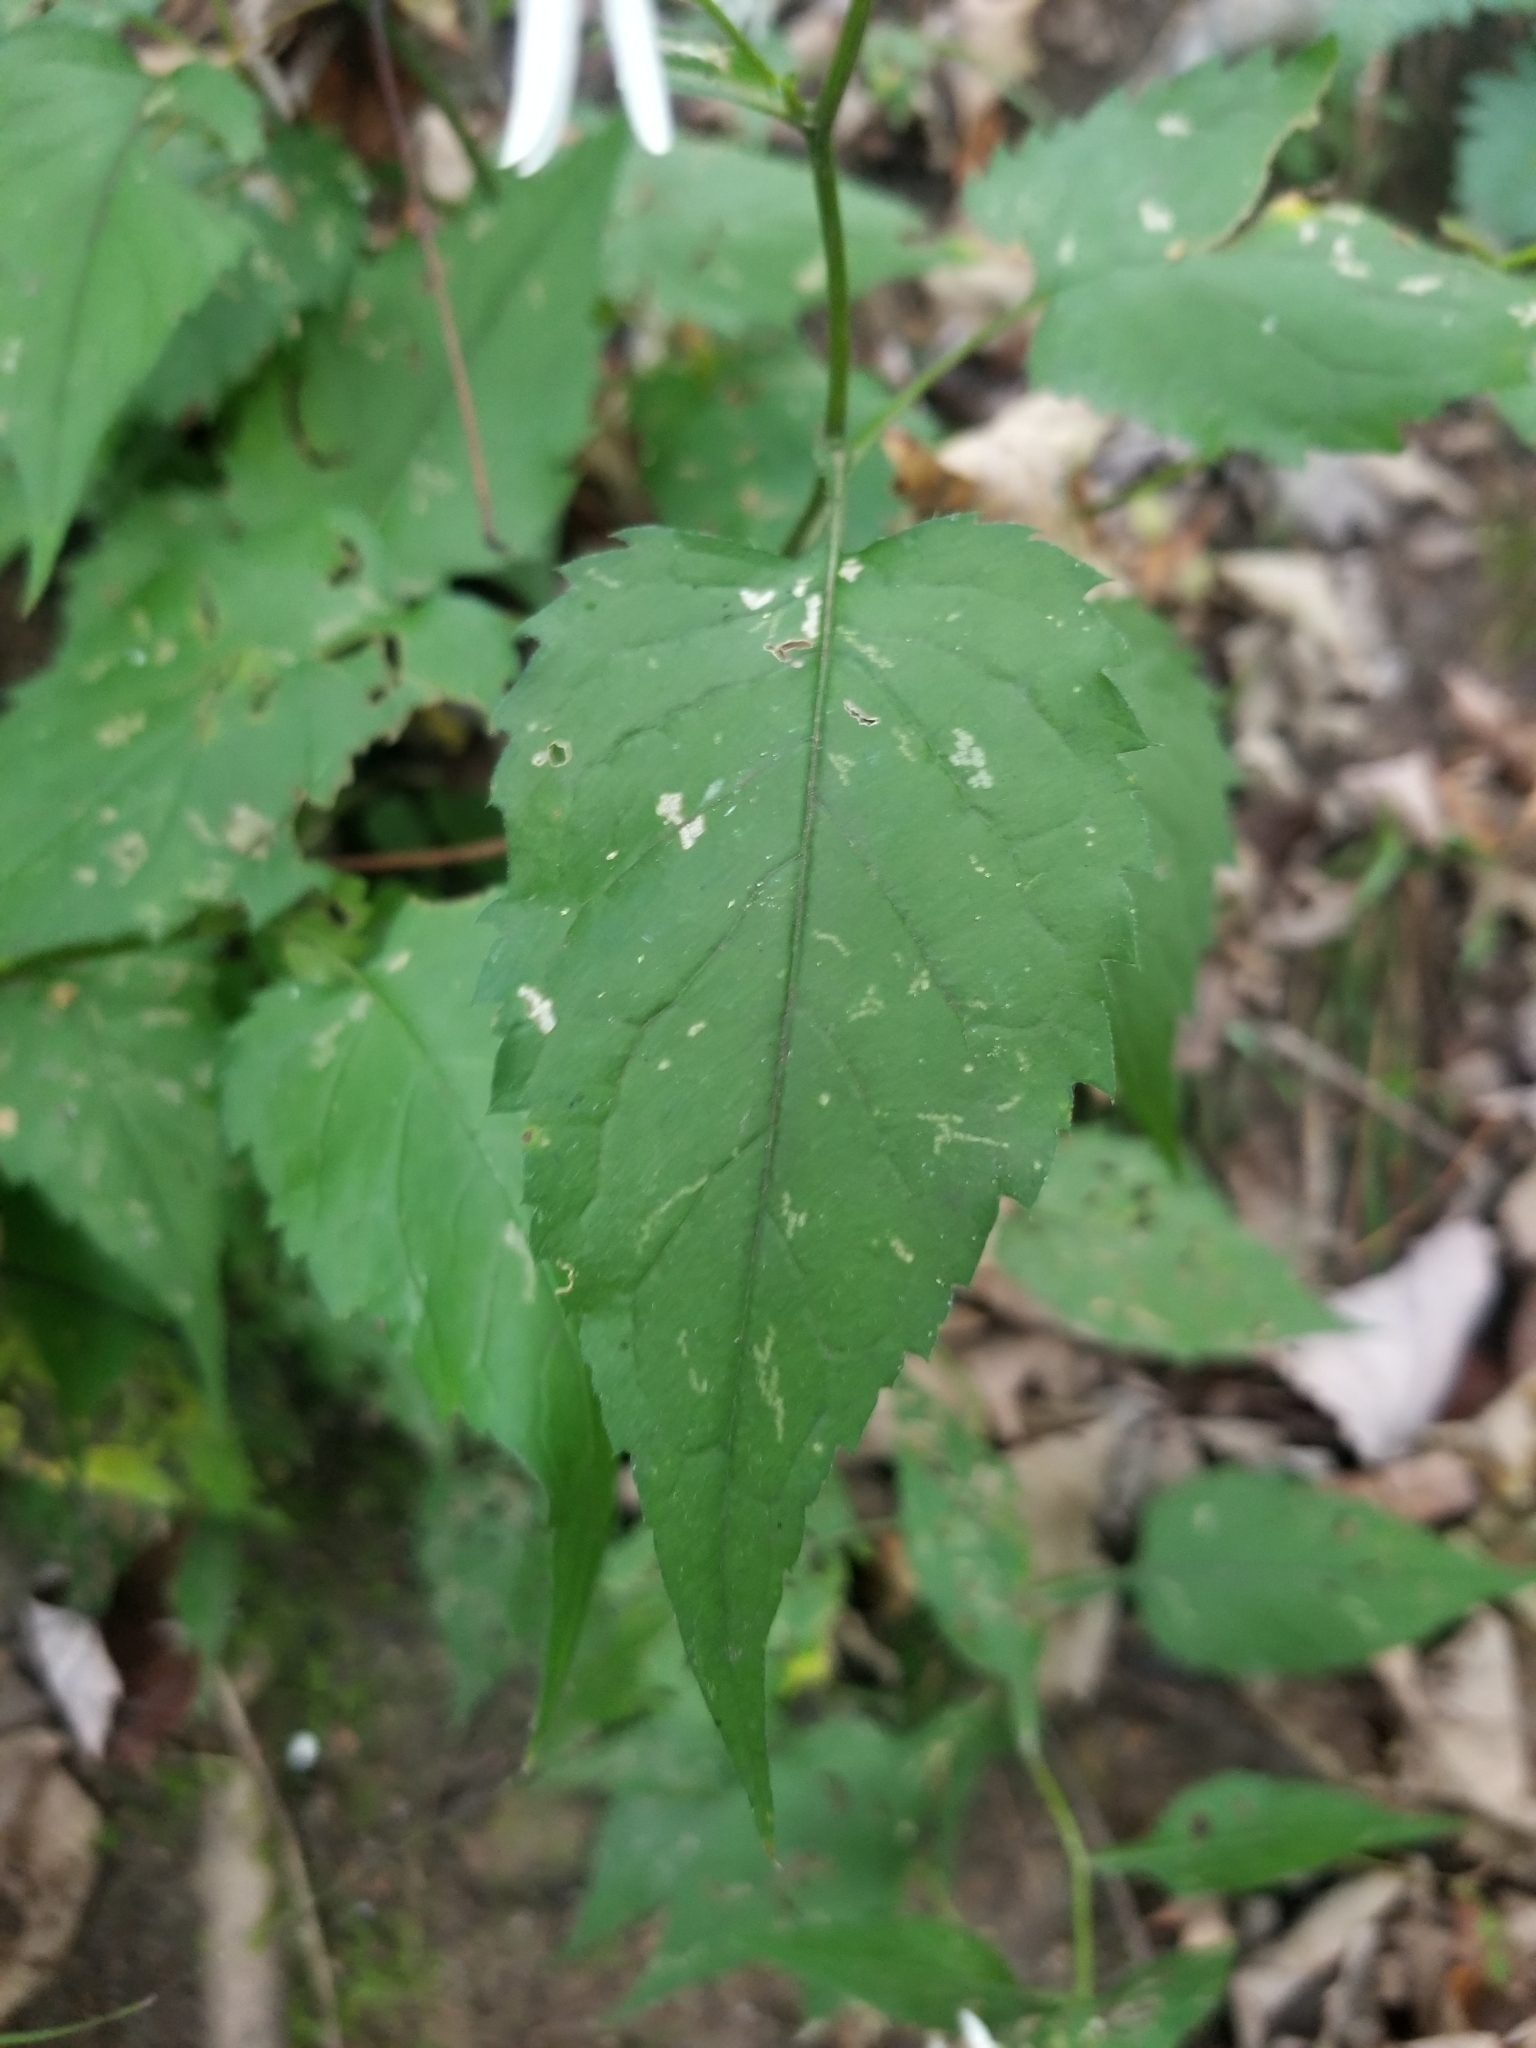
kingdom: Plantae
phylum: Tracheophyta
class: Magnoliopsida
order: Asterales
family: Asteraceae
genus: Eurybia
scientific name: Eurybia divaricata
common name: White wood aster
